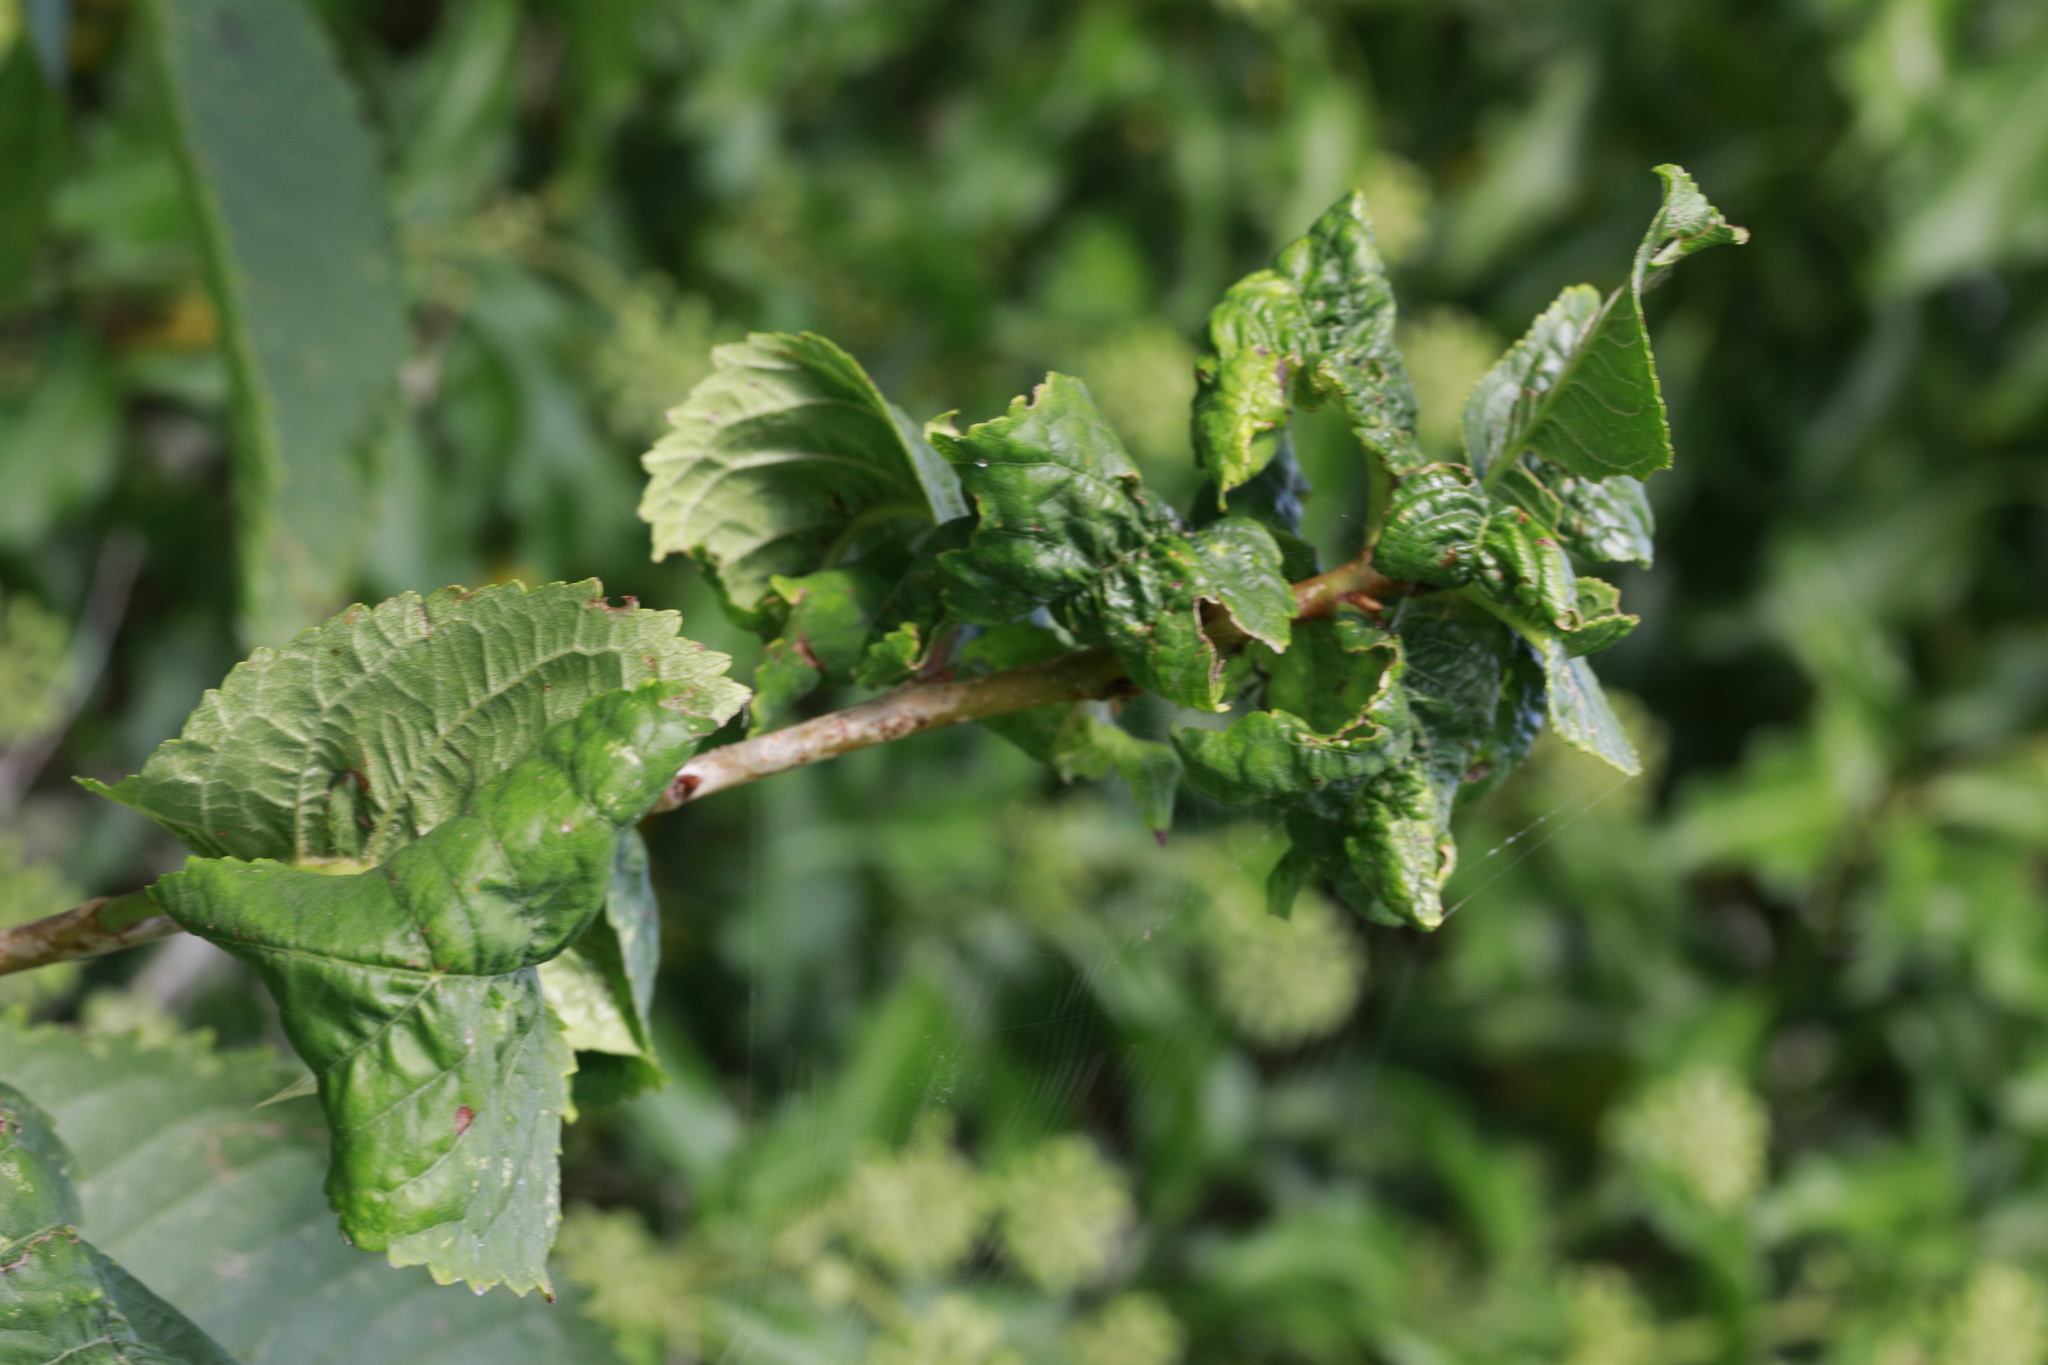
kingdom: Animalia
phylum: Arthropoda
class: Insecta
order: Hemiptera
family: Aphididae
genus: Myzus
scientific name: Myzus cerasi
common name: Black cherry aphid
